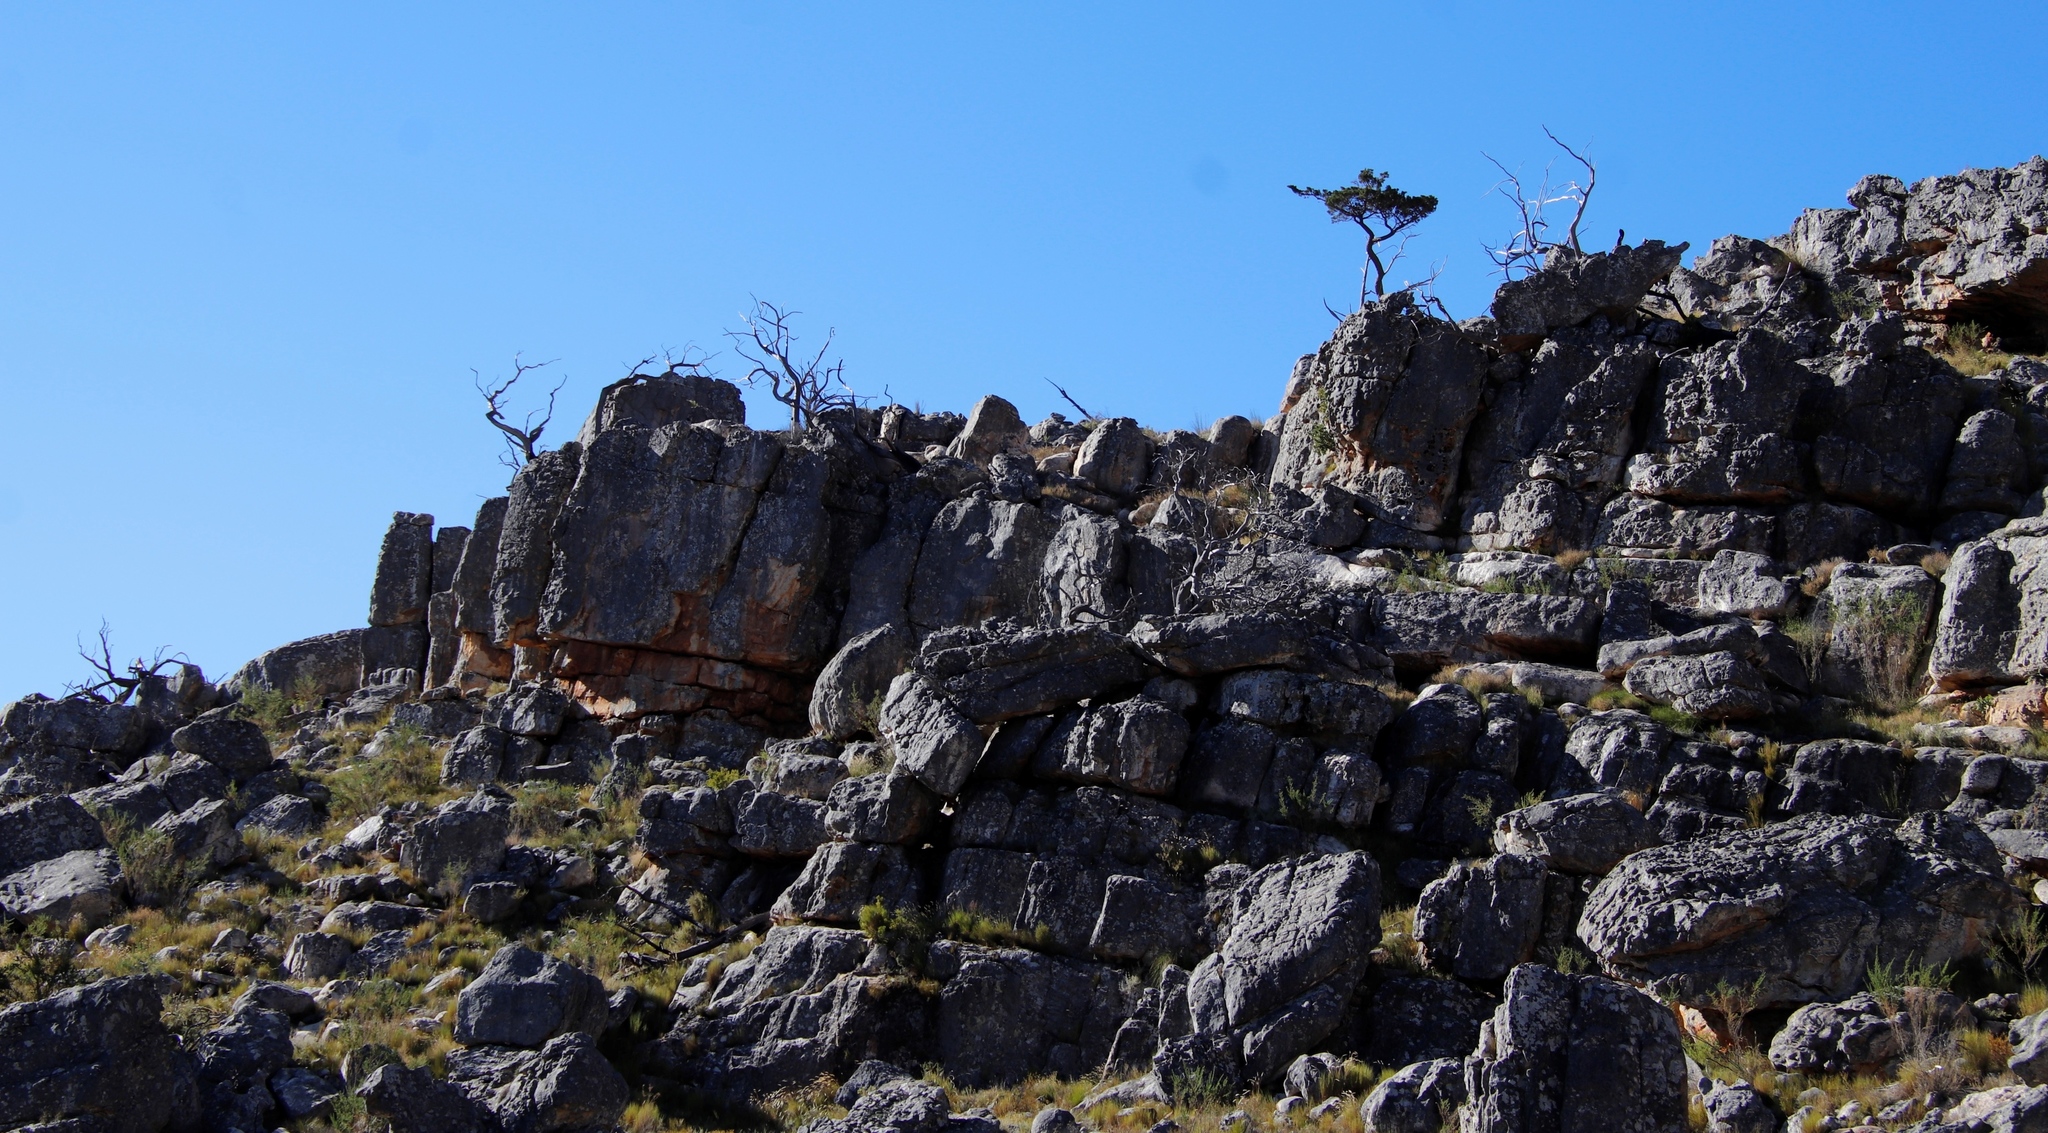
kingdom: Plantae
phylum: Tracheophyta
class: Pinopsida
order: Pinales
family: Cupressaceae
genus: Widdringtonia
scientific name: Widdringtonia nodiflora
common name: Cape cypress
